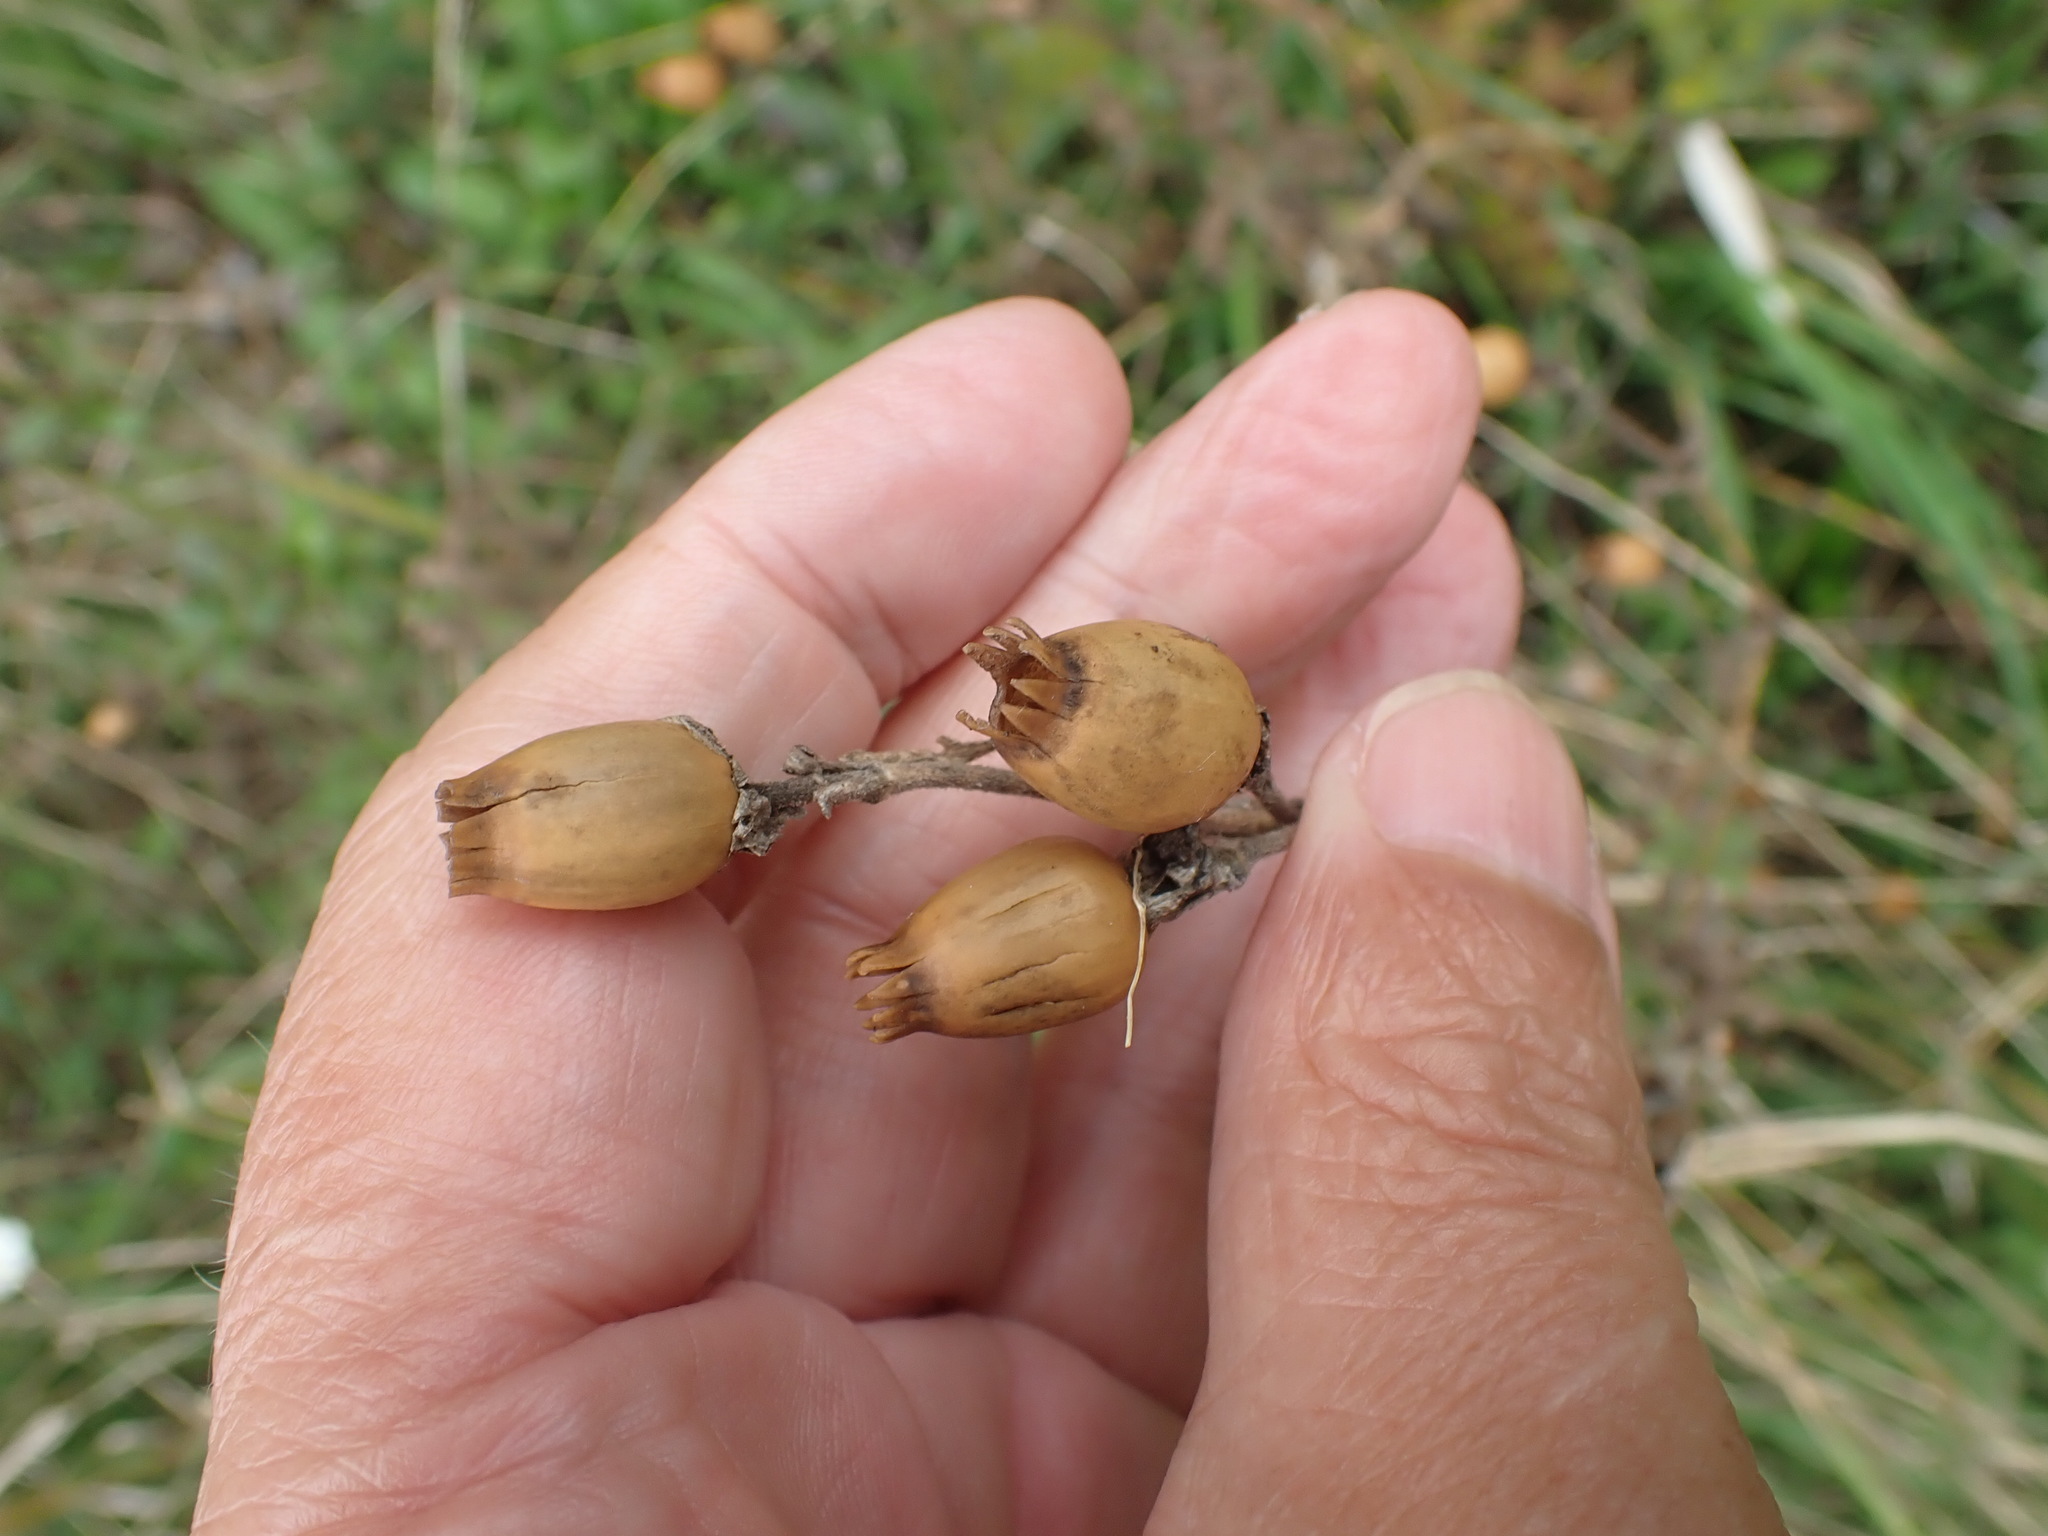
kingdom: Plantae
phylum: Tracheophyta
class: Magnoliopsida
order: Caryophyllales
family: Caryophyllaceae
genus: Silene
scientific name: Silene latifolia
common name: White campion
